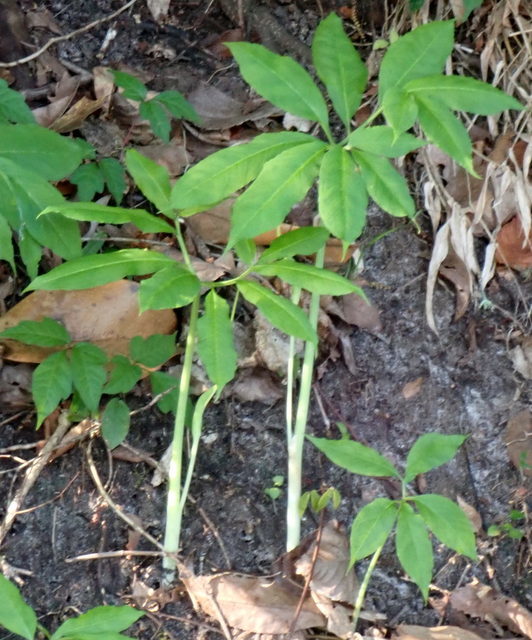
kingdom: Plantae
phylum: Tracheophyta
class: Liliopsida
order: Alismatales
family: Araceae
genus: Arisaema
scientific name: Arisaema dracontium
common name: Dragon-arum
